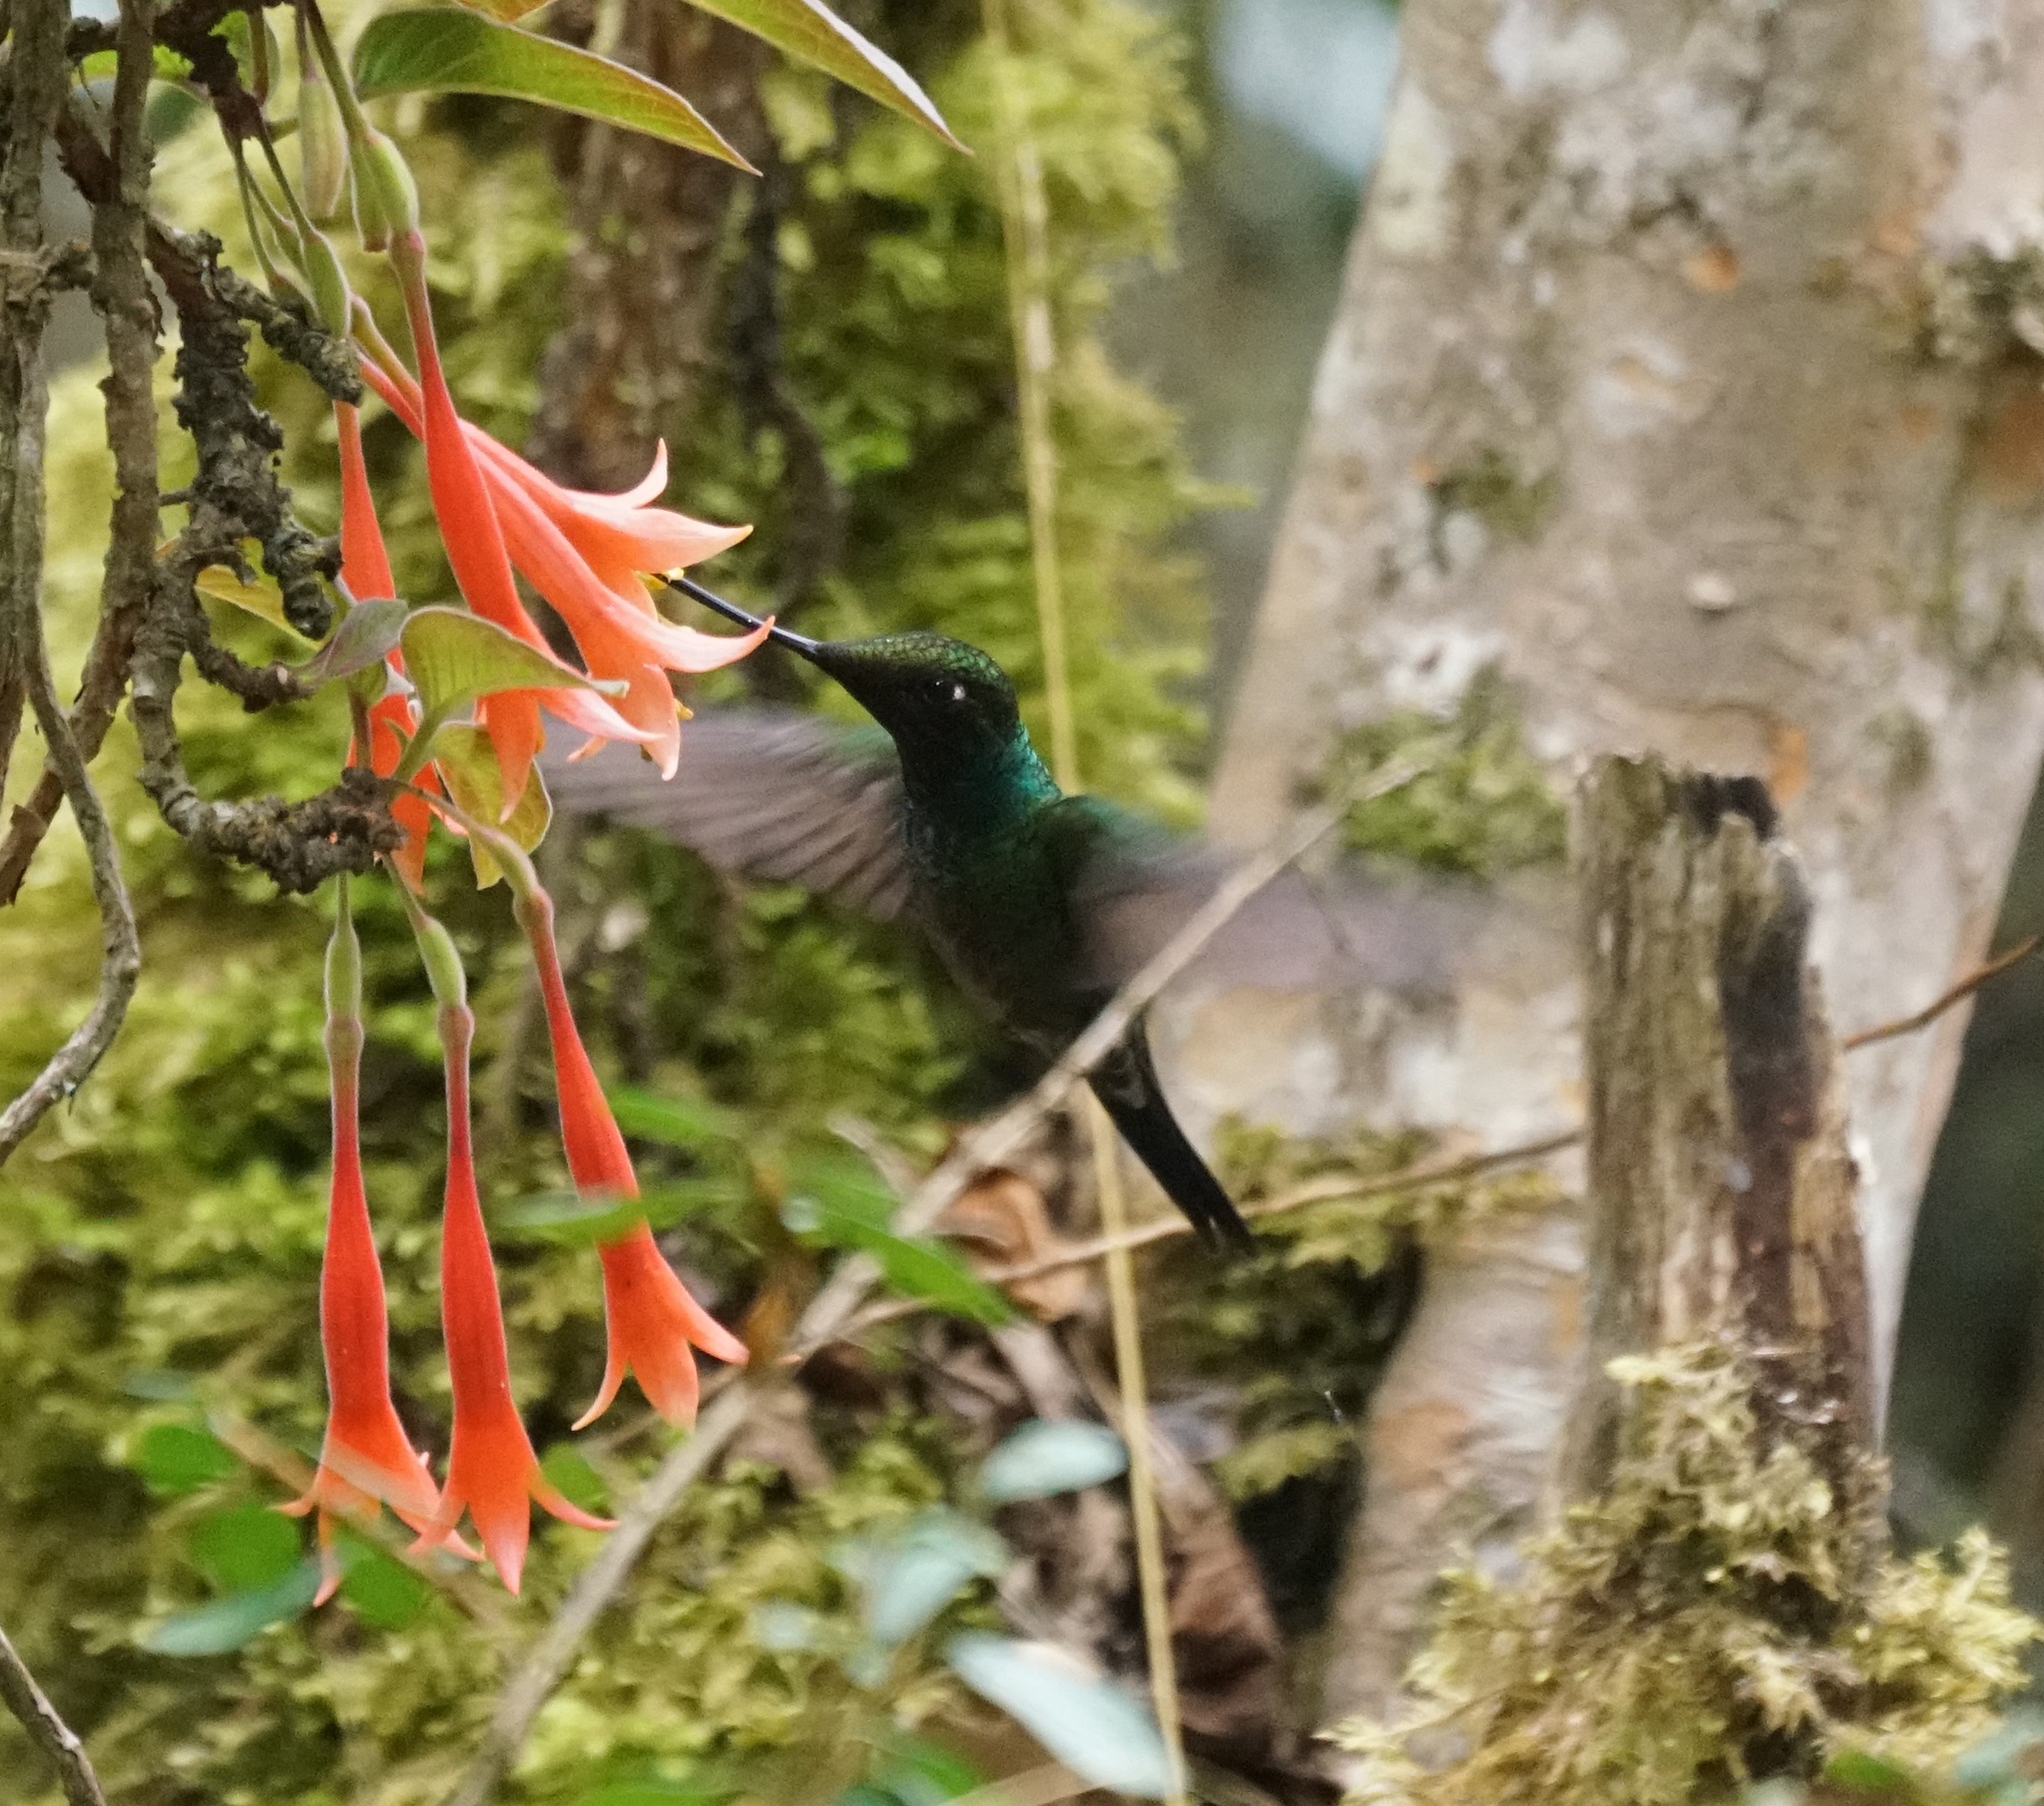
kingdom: Animalia
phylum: Chordata
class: Aves
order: Apodiformes
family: Trochilidae
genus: Ensifera
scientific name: Ensifera ensifera
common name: Sword-billed hummingbird
